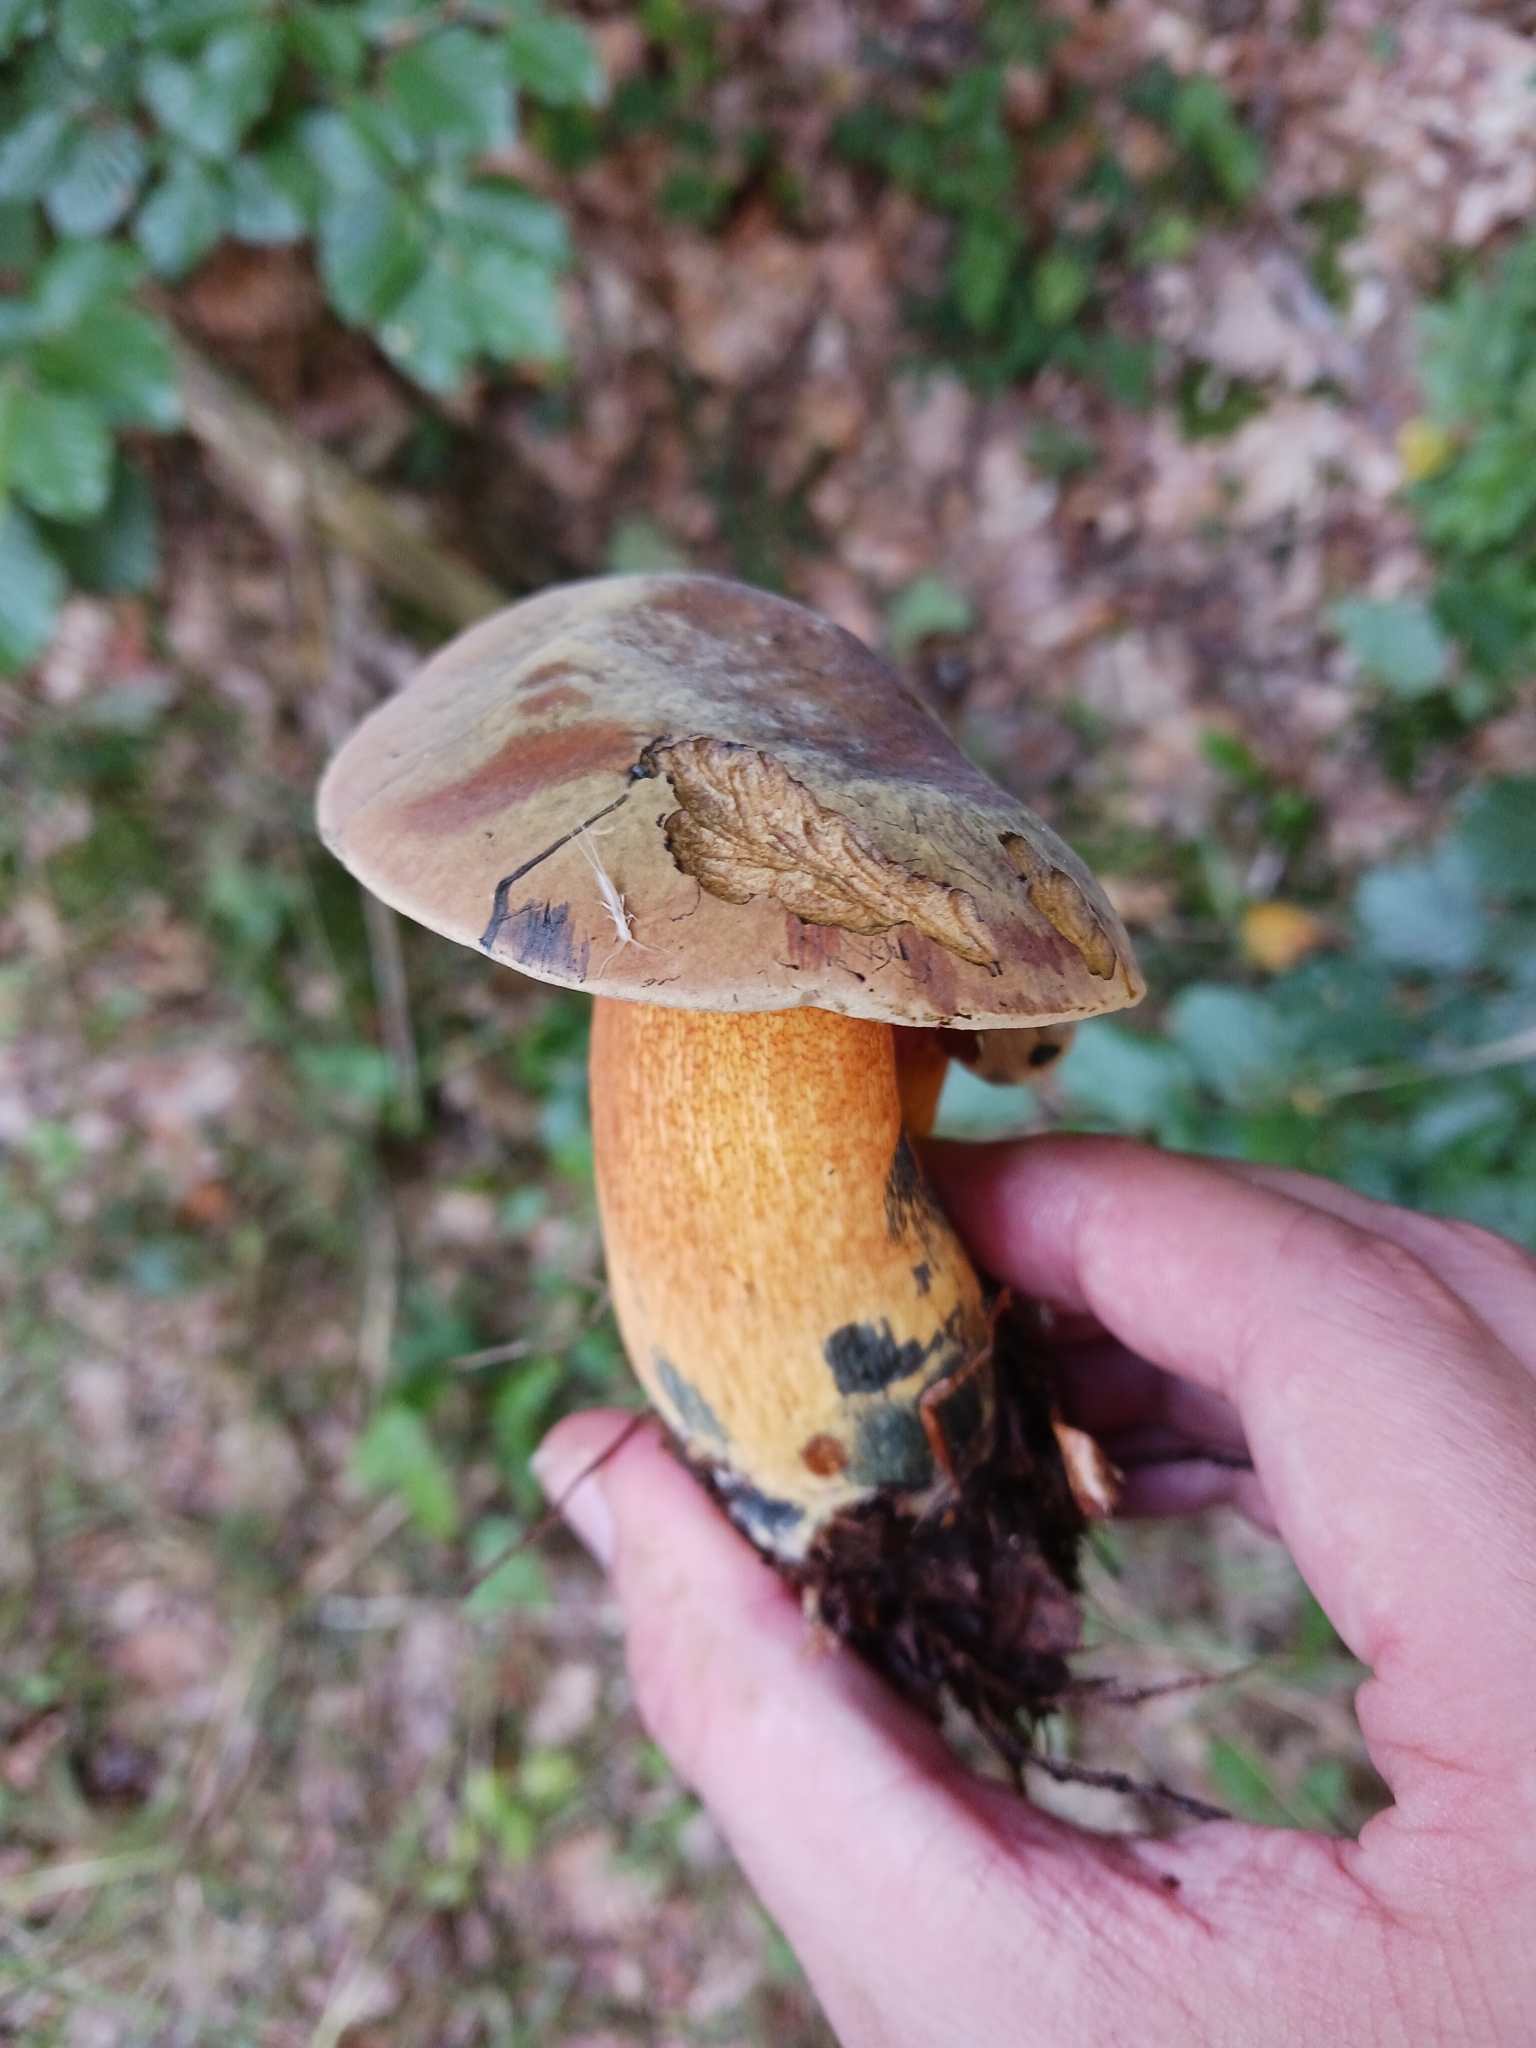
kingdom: Fungi
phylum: Basidiomycota
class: Agaricomycetes
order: Boletales
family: Boletaceae
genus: Suillellus
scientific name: Suillellus mendax
